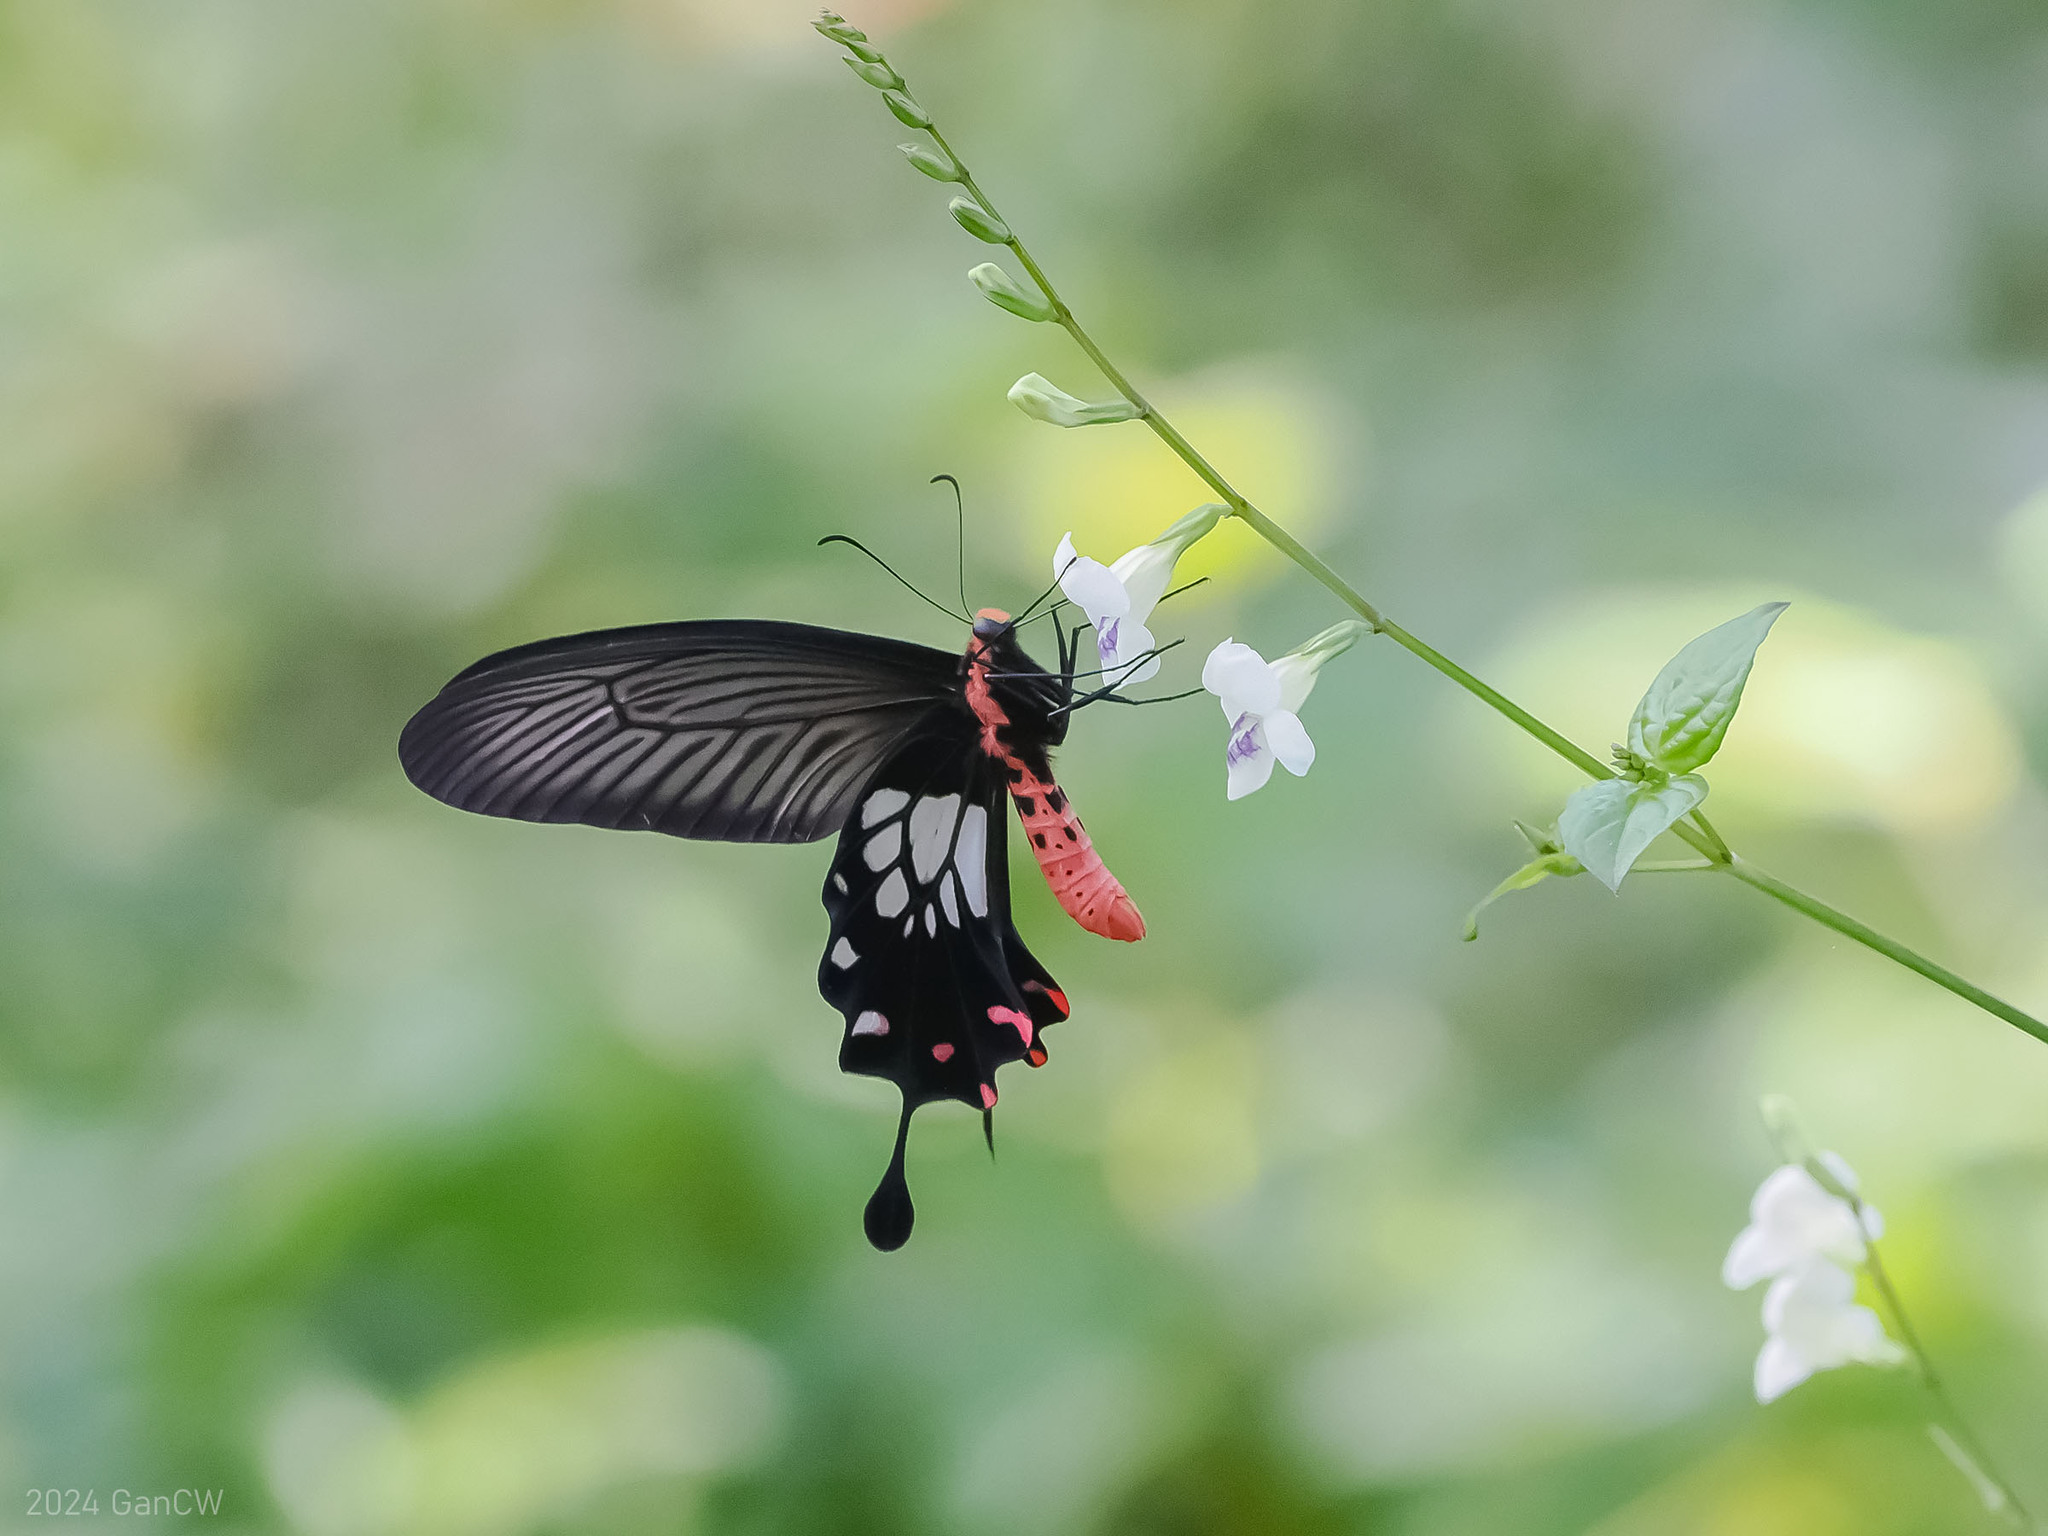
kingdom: Animalia
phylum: Arthropoda
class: Insecta
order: Lepidoptera
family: Papilionidae
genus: Losaria
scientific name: Losaria
